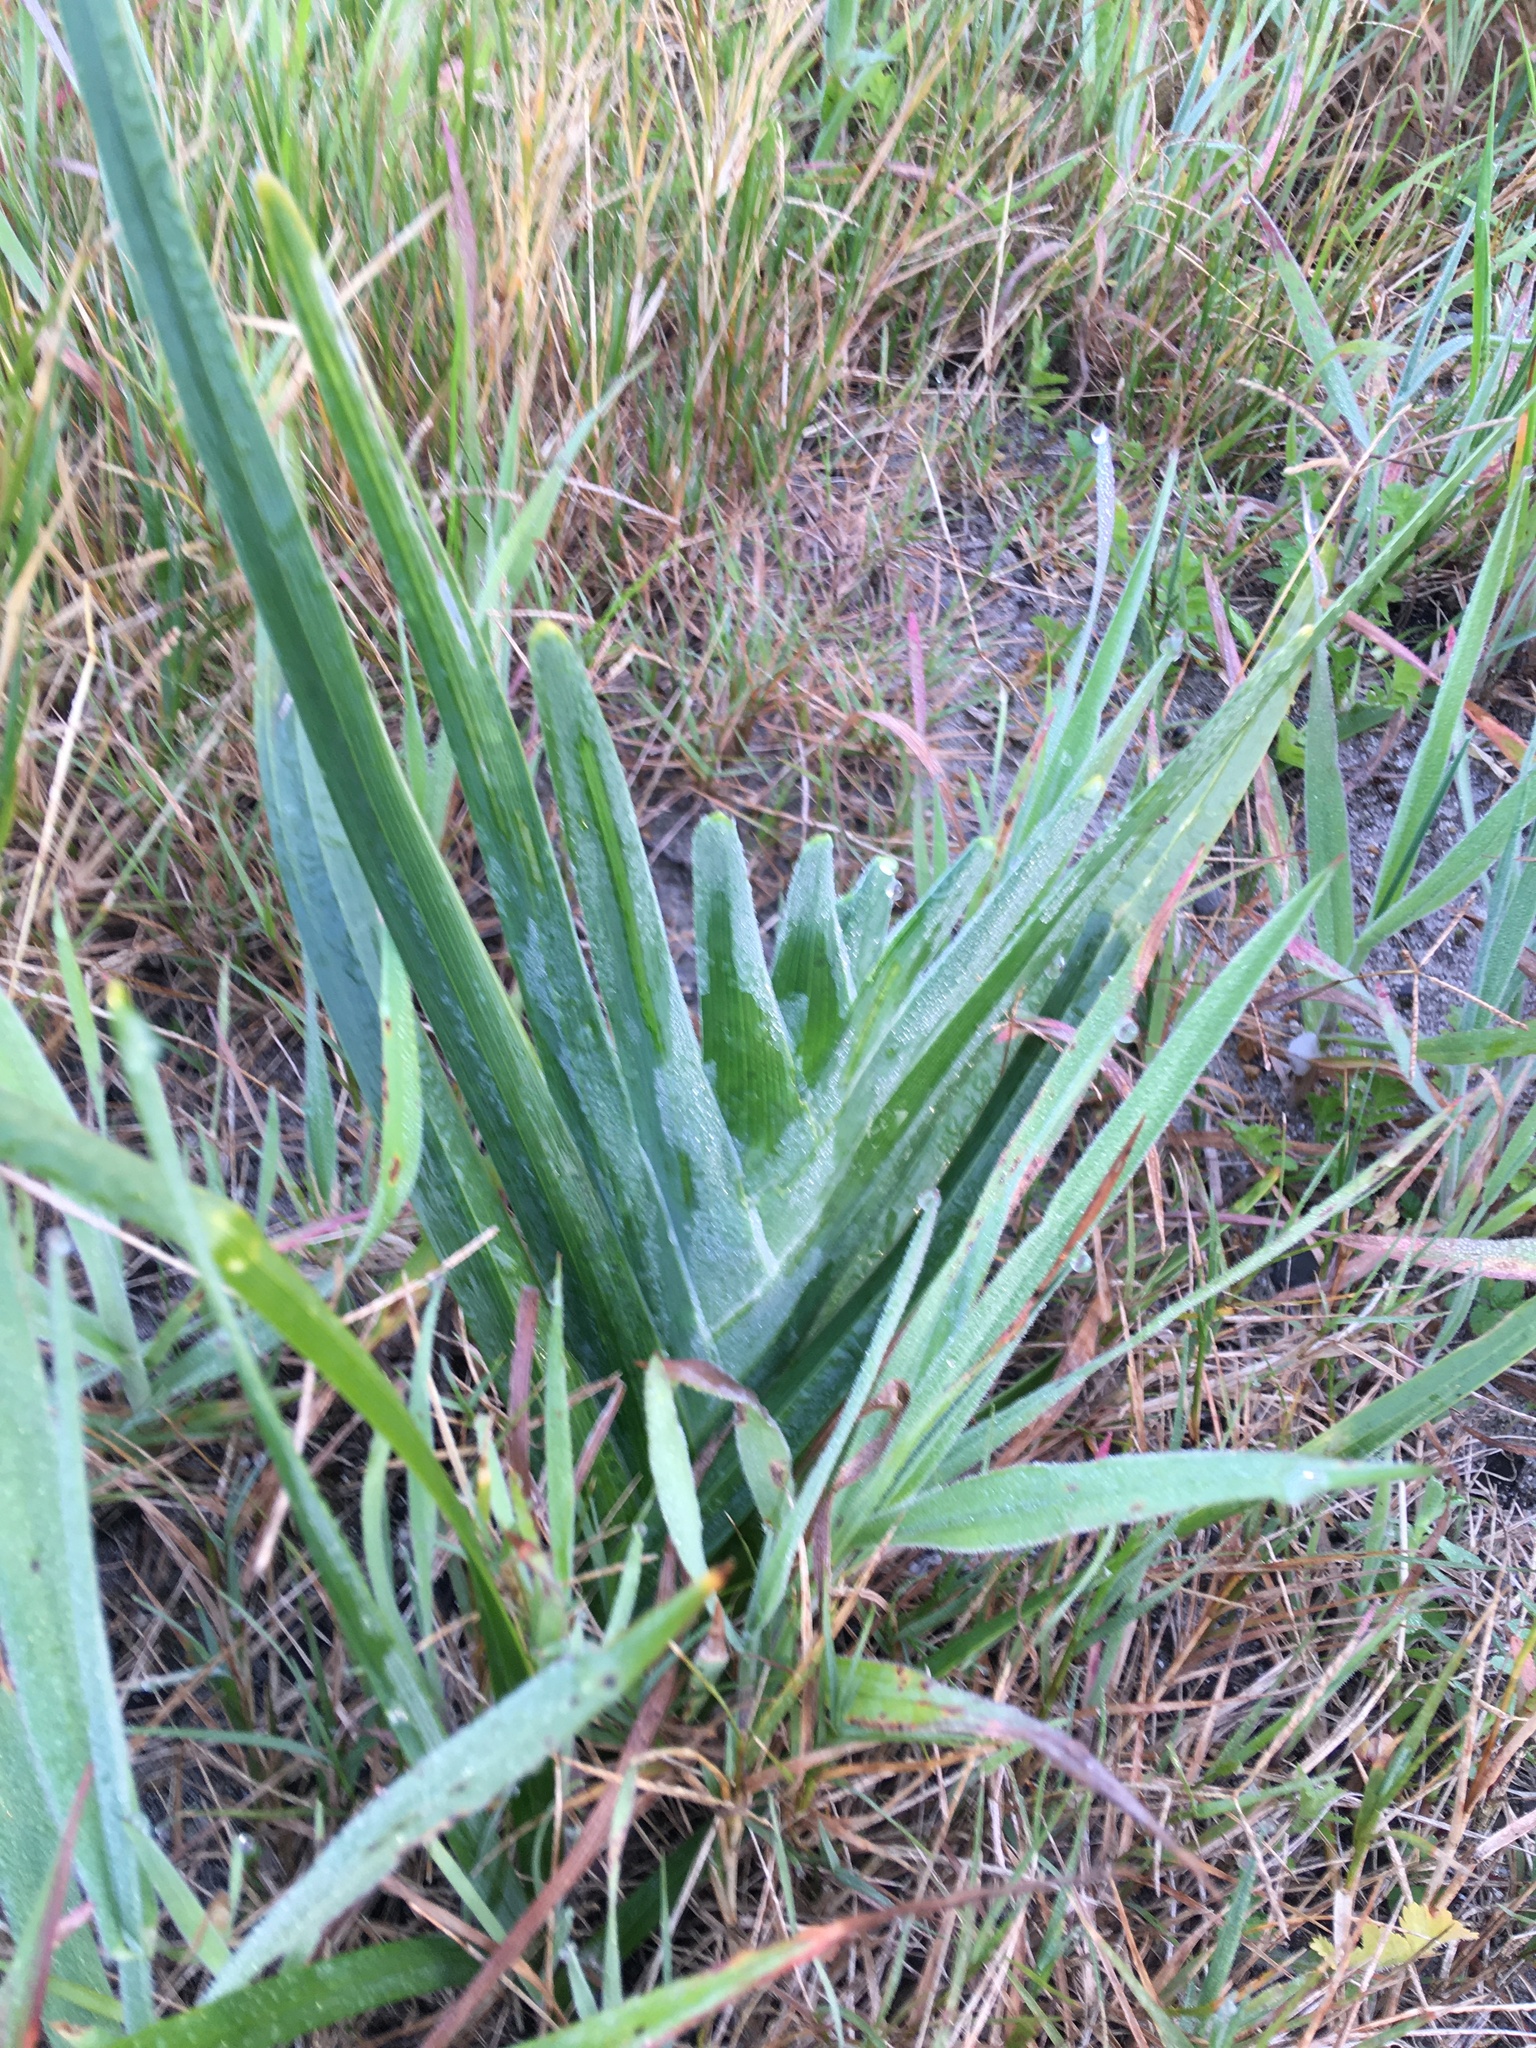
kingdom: Plantae
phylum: Tracheophyta
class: Liliopsida
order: Asparagales
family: Iridaceae
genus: Ferraria
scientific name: Ferraria crispa
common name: Black-flag
